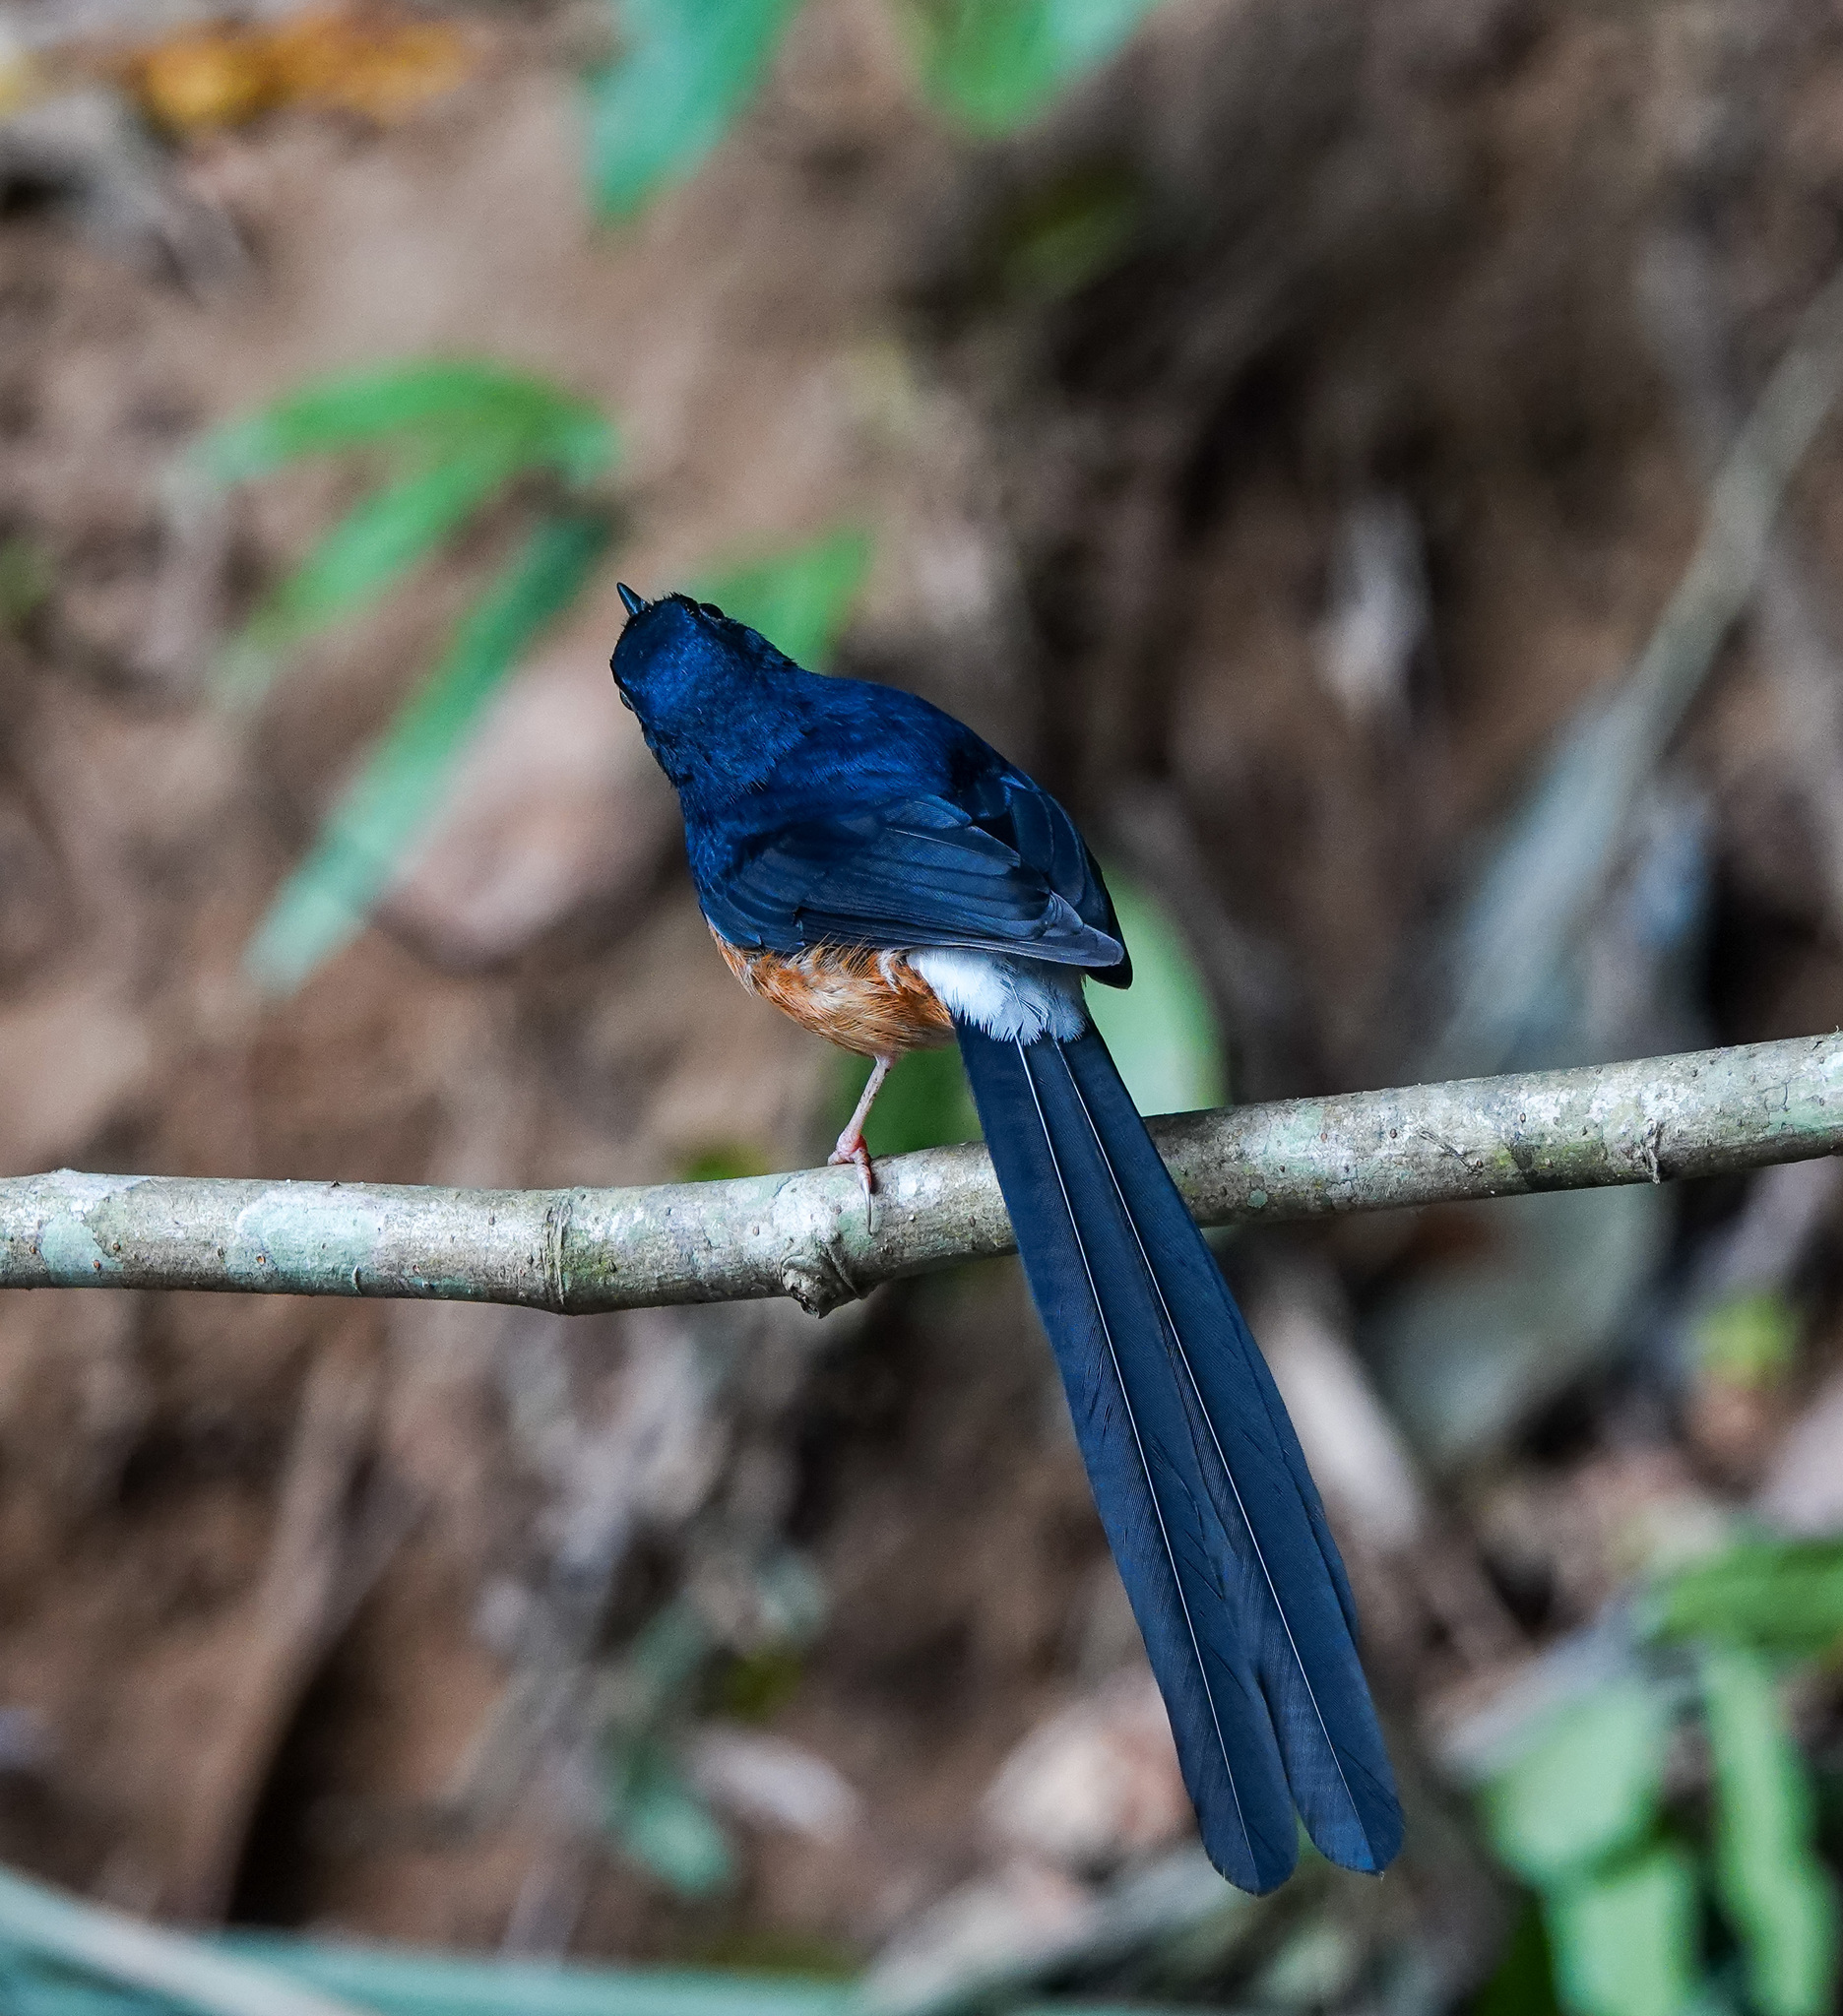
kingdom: Animalia
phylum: Chordata
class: Aves
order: Passeriformes
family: Muscicapidae
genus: Copsychus
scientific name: Copsychus malabaricus
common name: White-rumped shama
